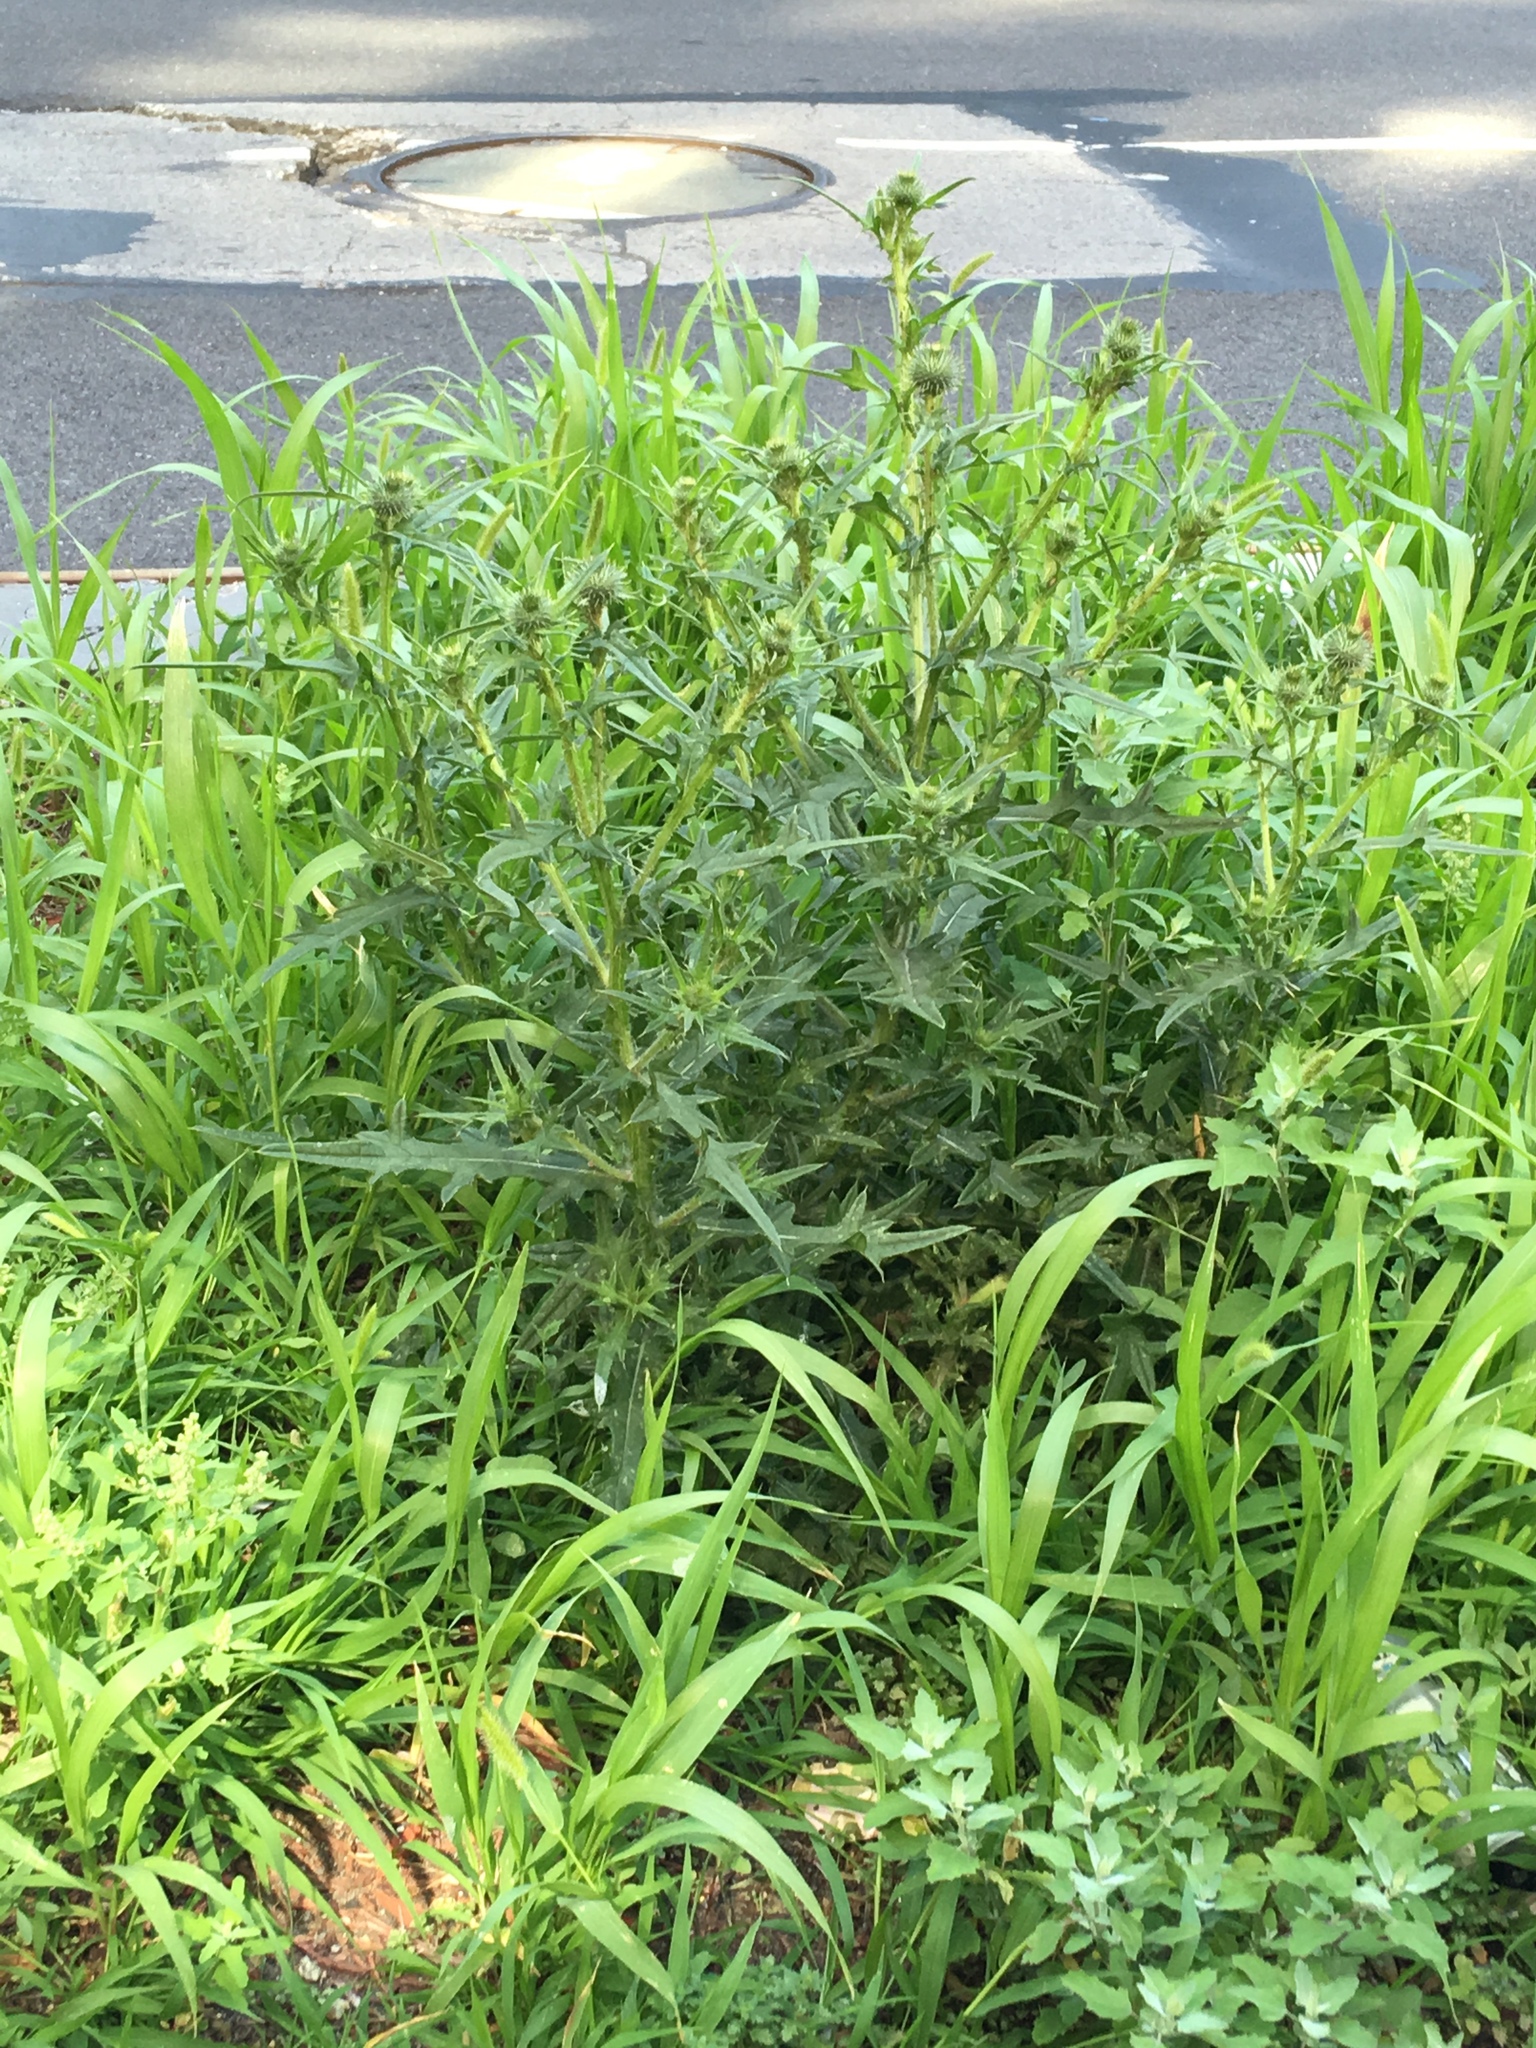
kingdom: Plantae
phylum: Tracheophyta
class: Magnoliopsida
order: Asterales
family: Asteraceae
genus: Cirsium
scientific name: Cirsium vulgare
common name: Bull thistle
